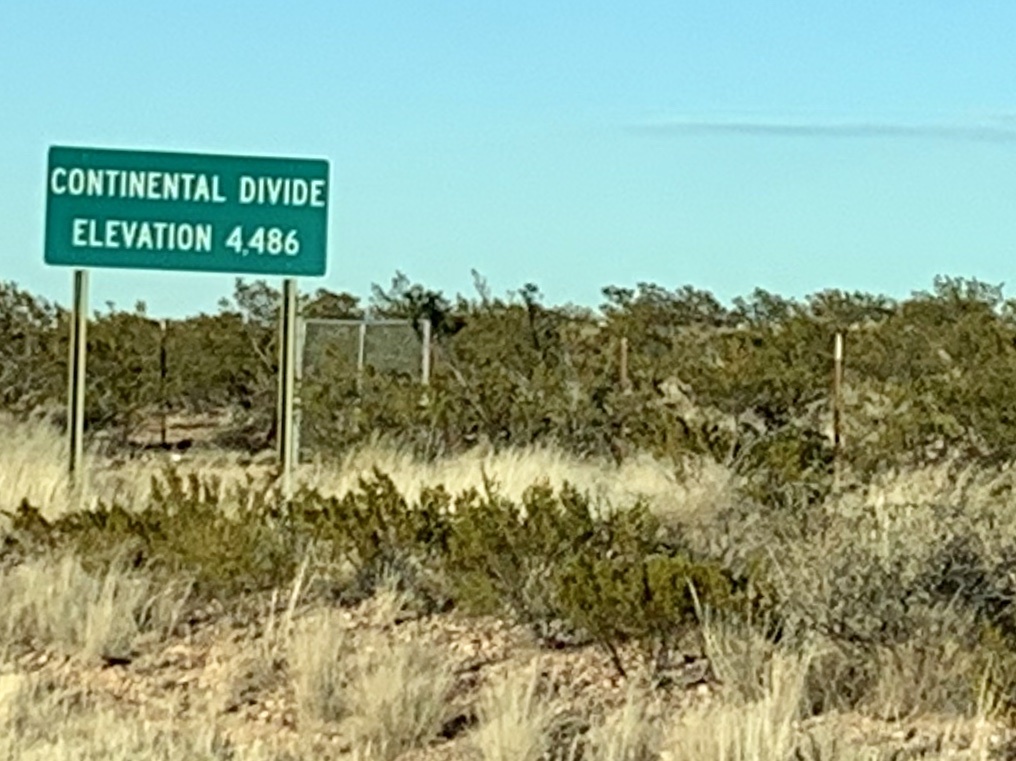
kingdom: Plantae
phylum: Tracheophyta
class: Magnoliopsida
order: Zygophyllales
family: Zygophyllaceae
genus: Larrea
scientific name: Larrea tridentata
